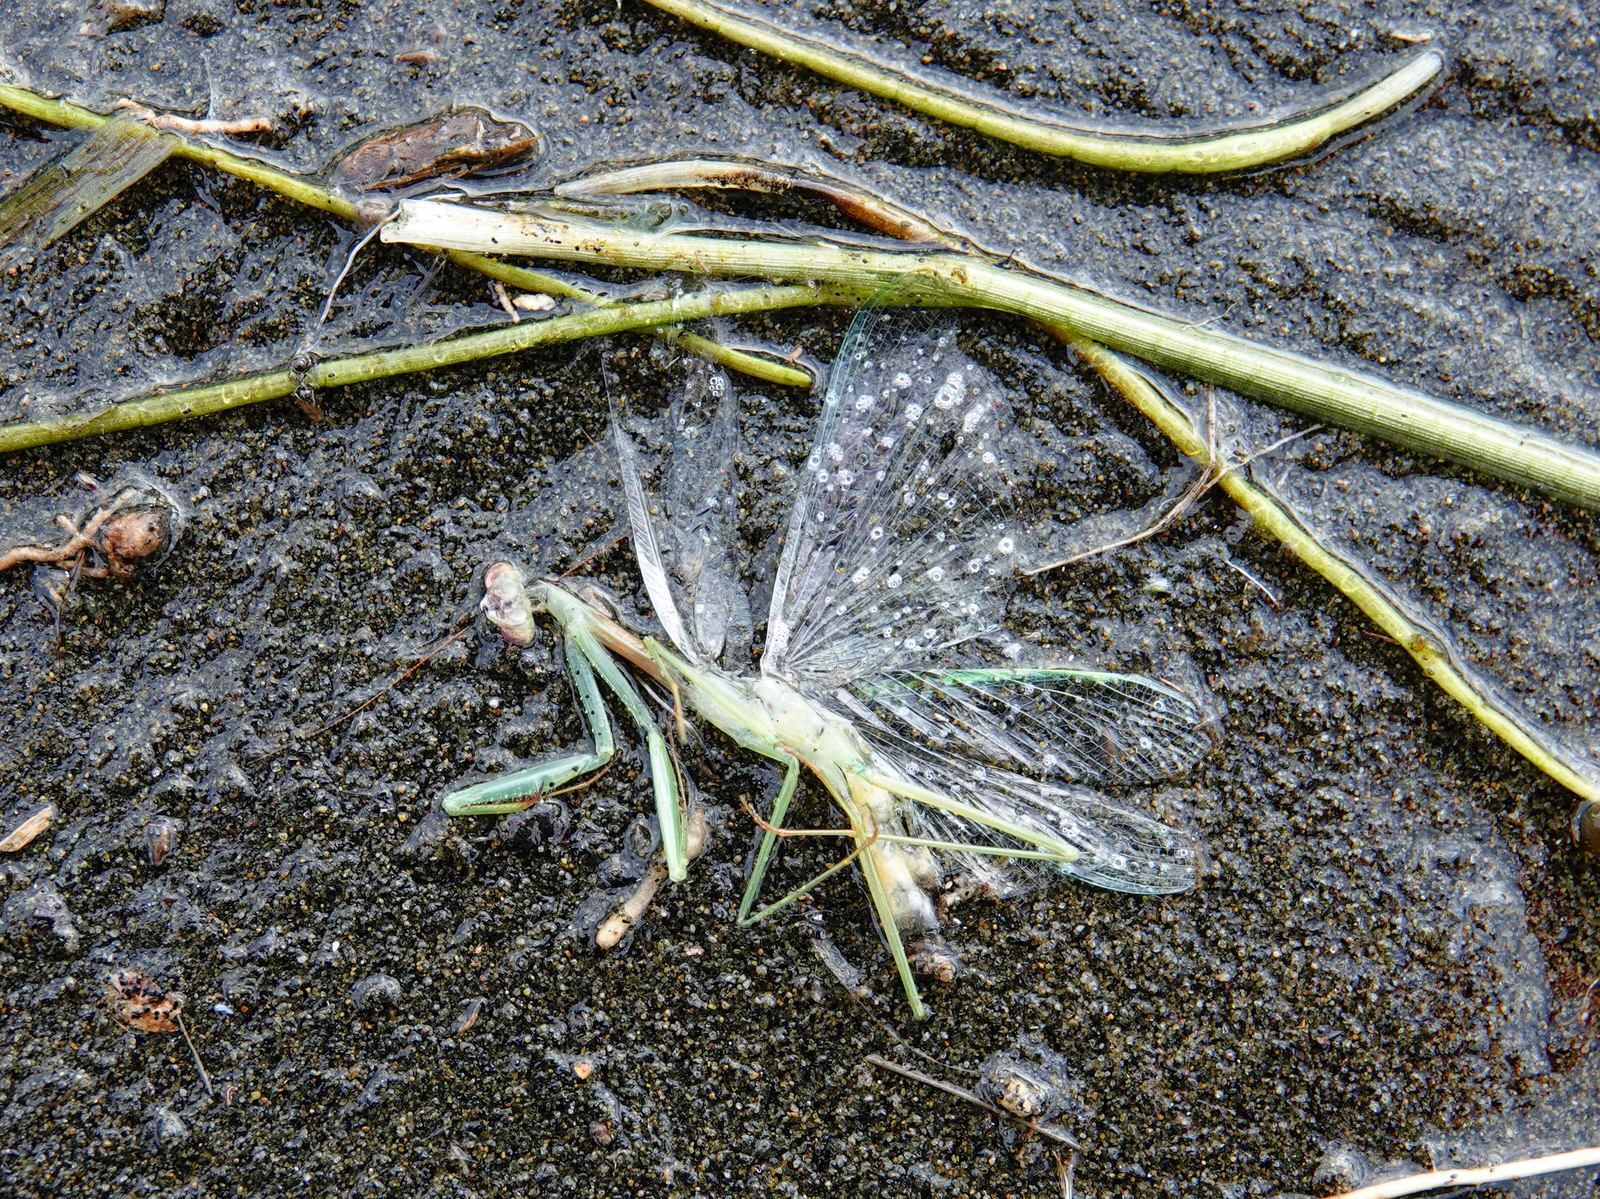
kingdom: Animalia
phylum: Arthropoda
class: Insecta
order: Mantodea
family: Miomantidae
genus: Miomantis
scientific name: Miomantis caffra
